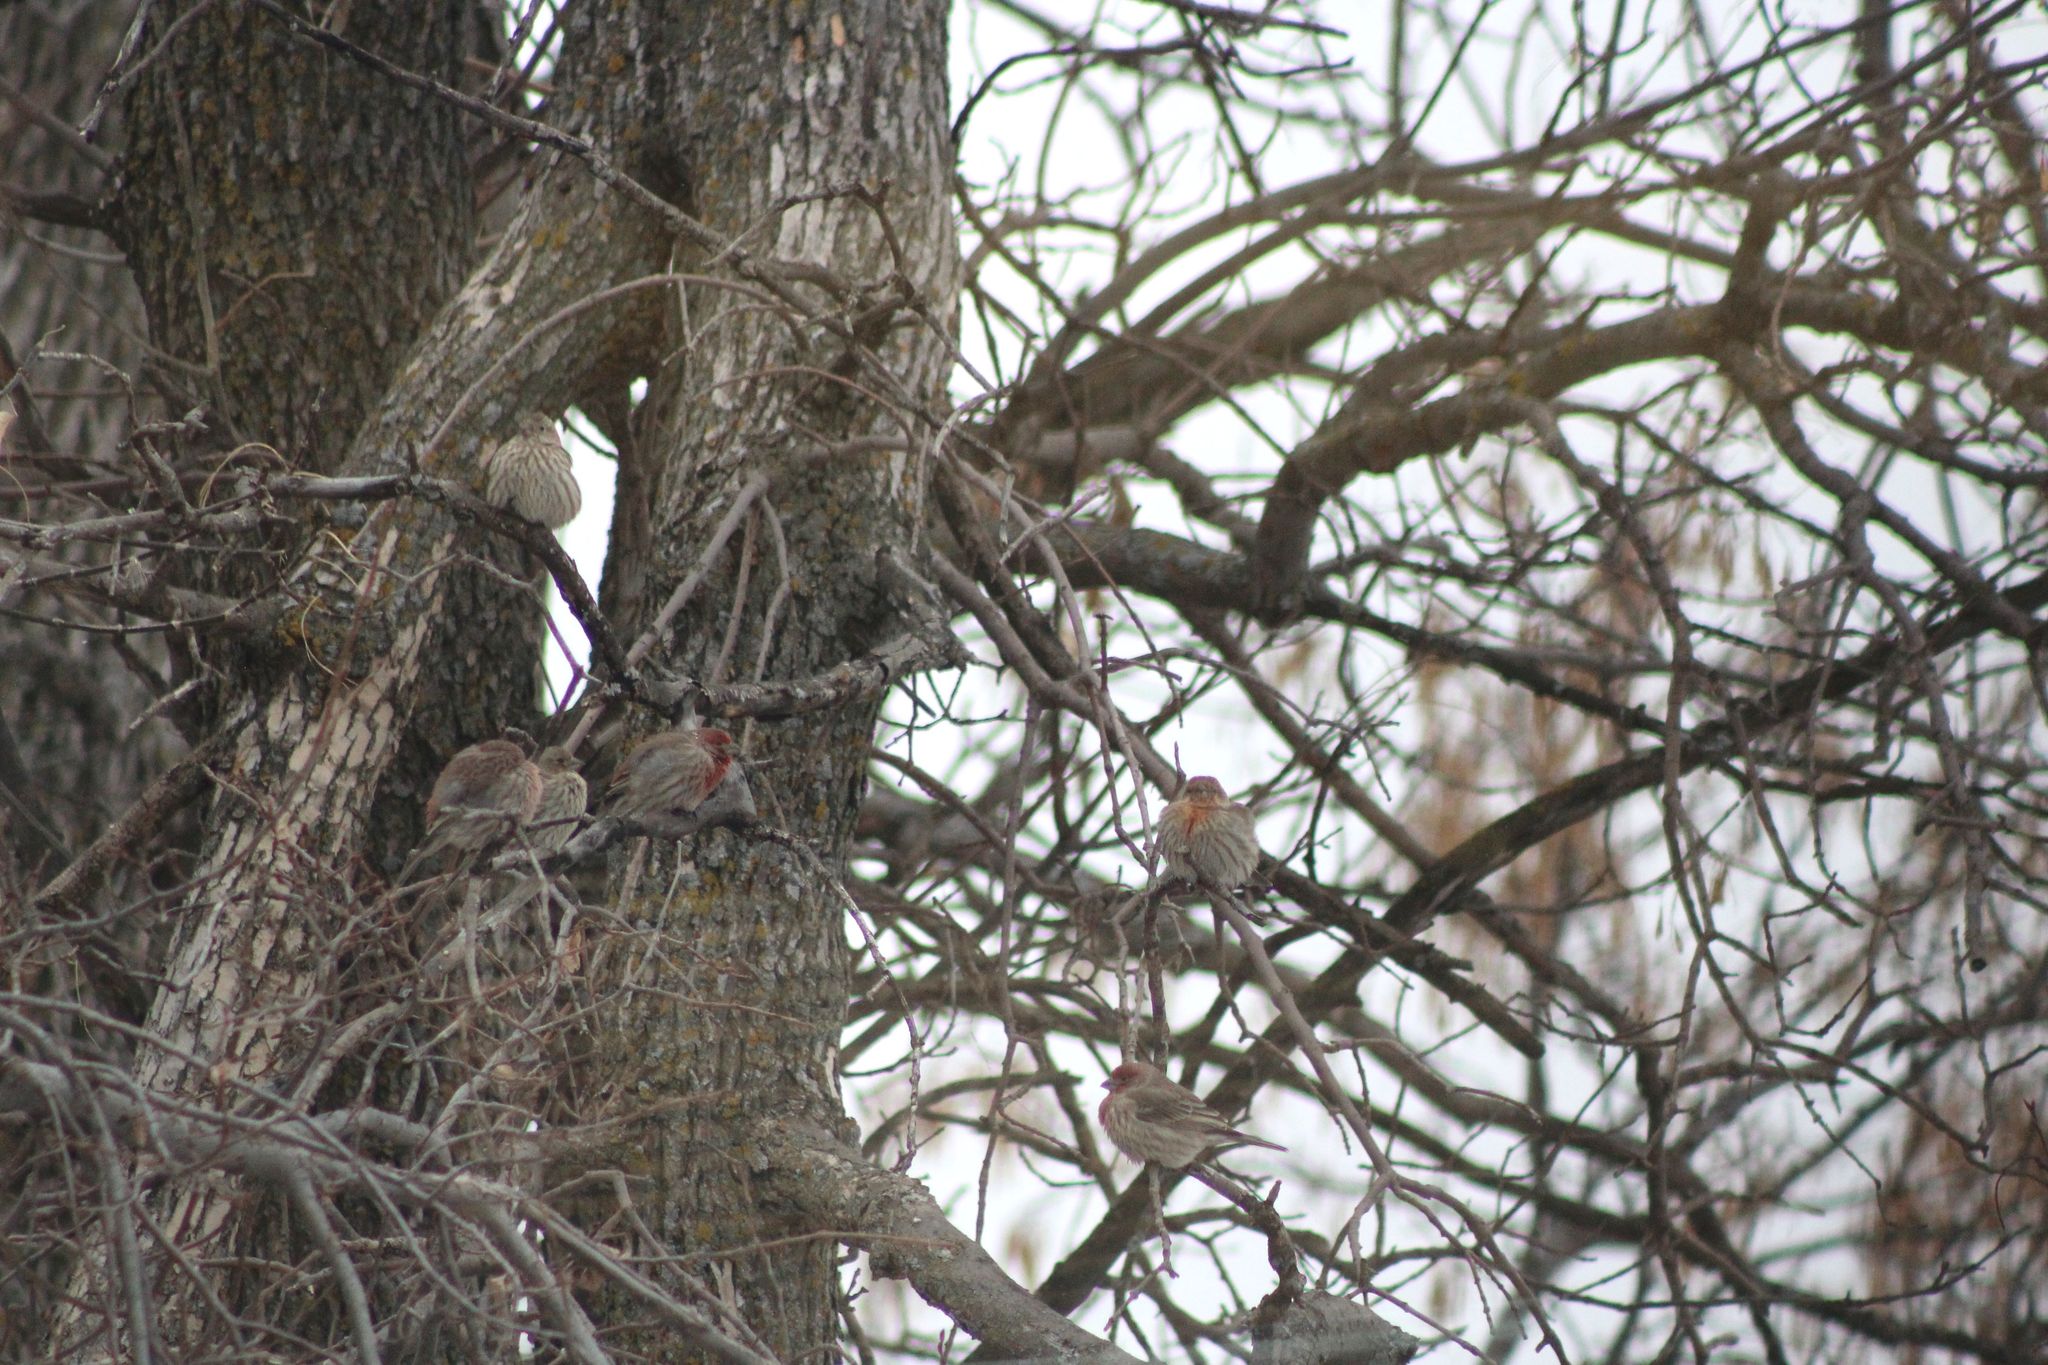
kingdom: Animalia
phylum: Chordata
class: Aves
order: Passeriformes
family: Fringillidae
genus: Haemorhous
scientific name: Haemorhous mexicanus
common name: House finch
